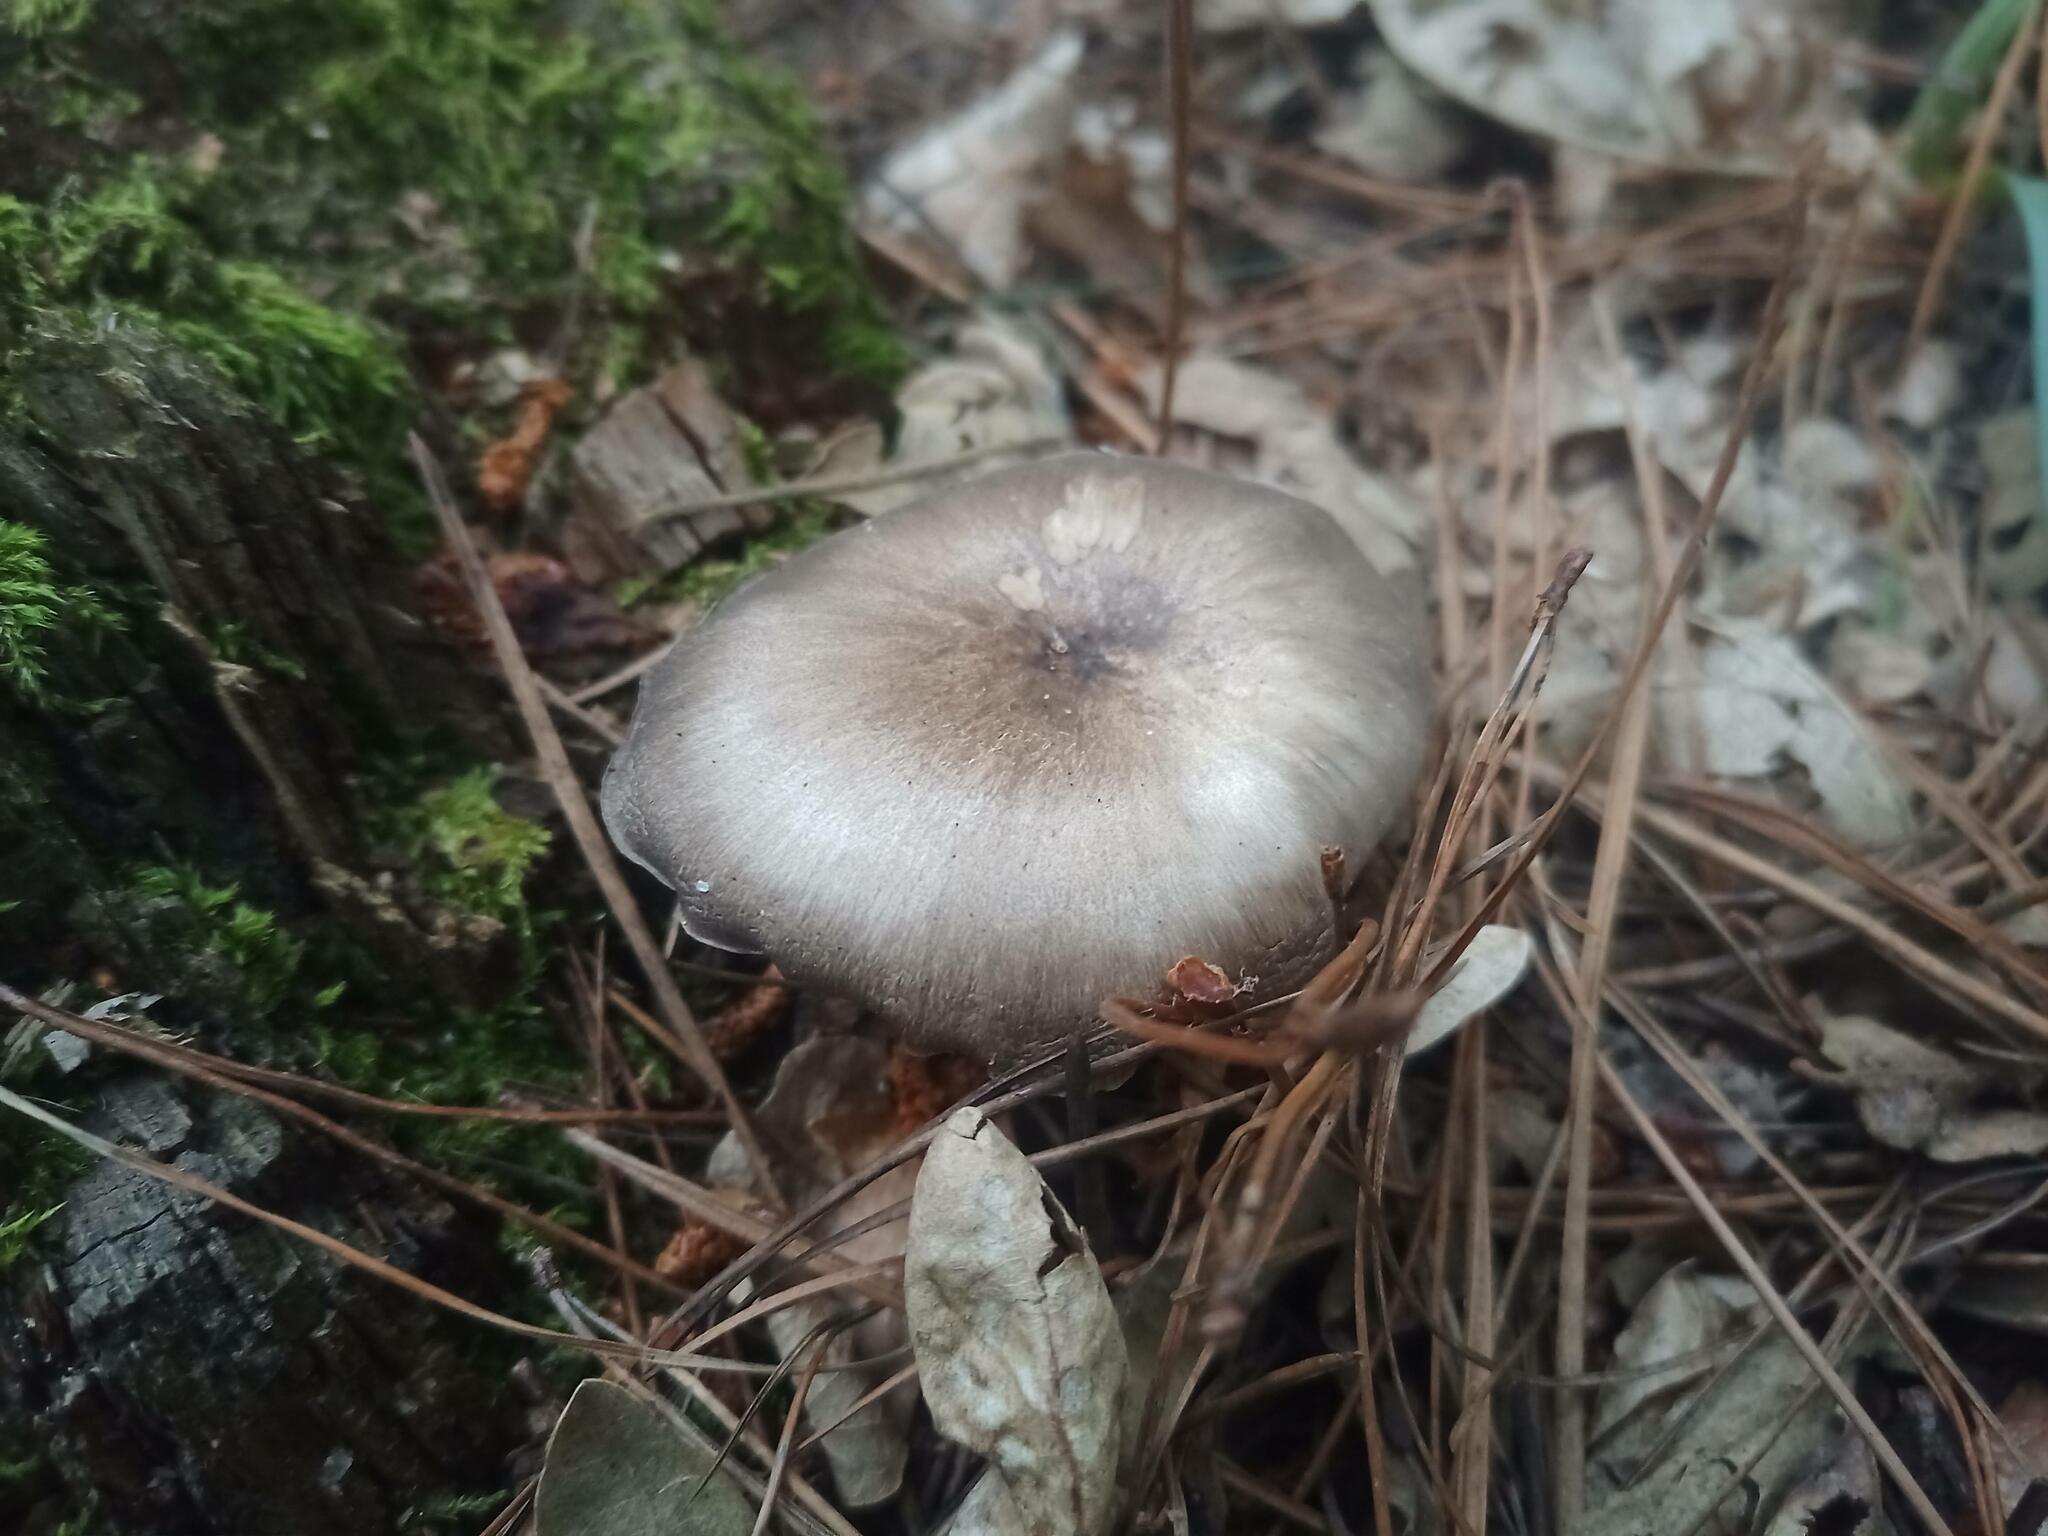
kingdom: Fungi
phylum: Basidiomycota
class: Agaricomycetes
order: Agaricales
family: Tricholomataceae
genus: Megacollybia
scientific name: Megacollybia platyphylla
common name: Whitelaced shank
